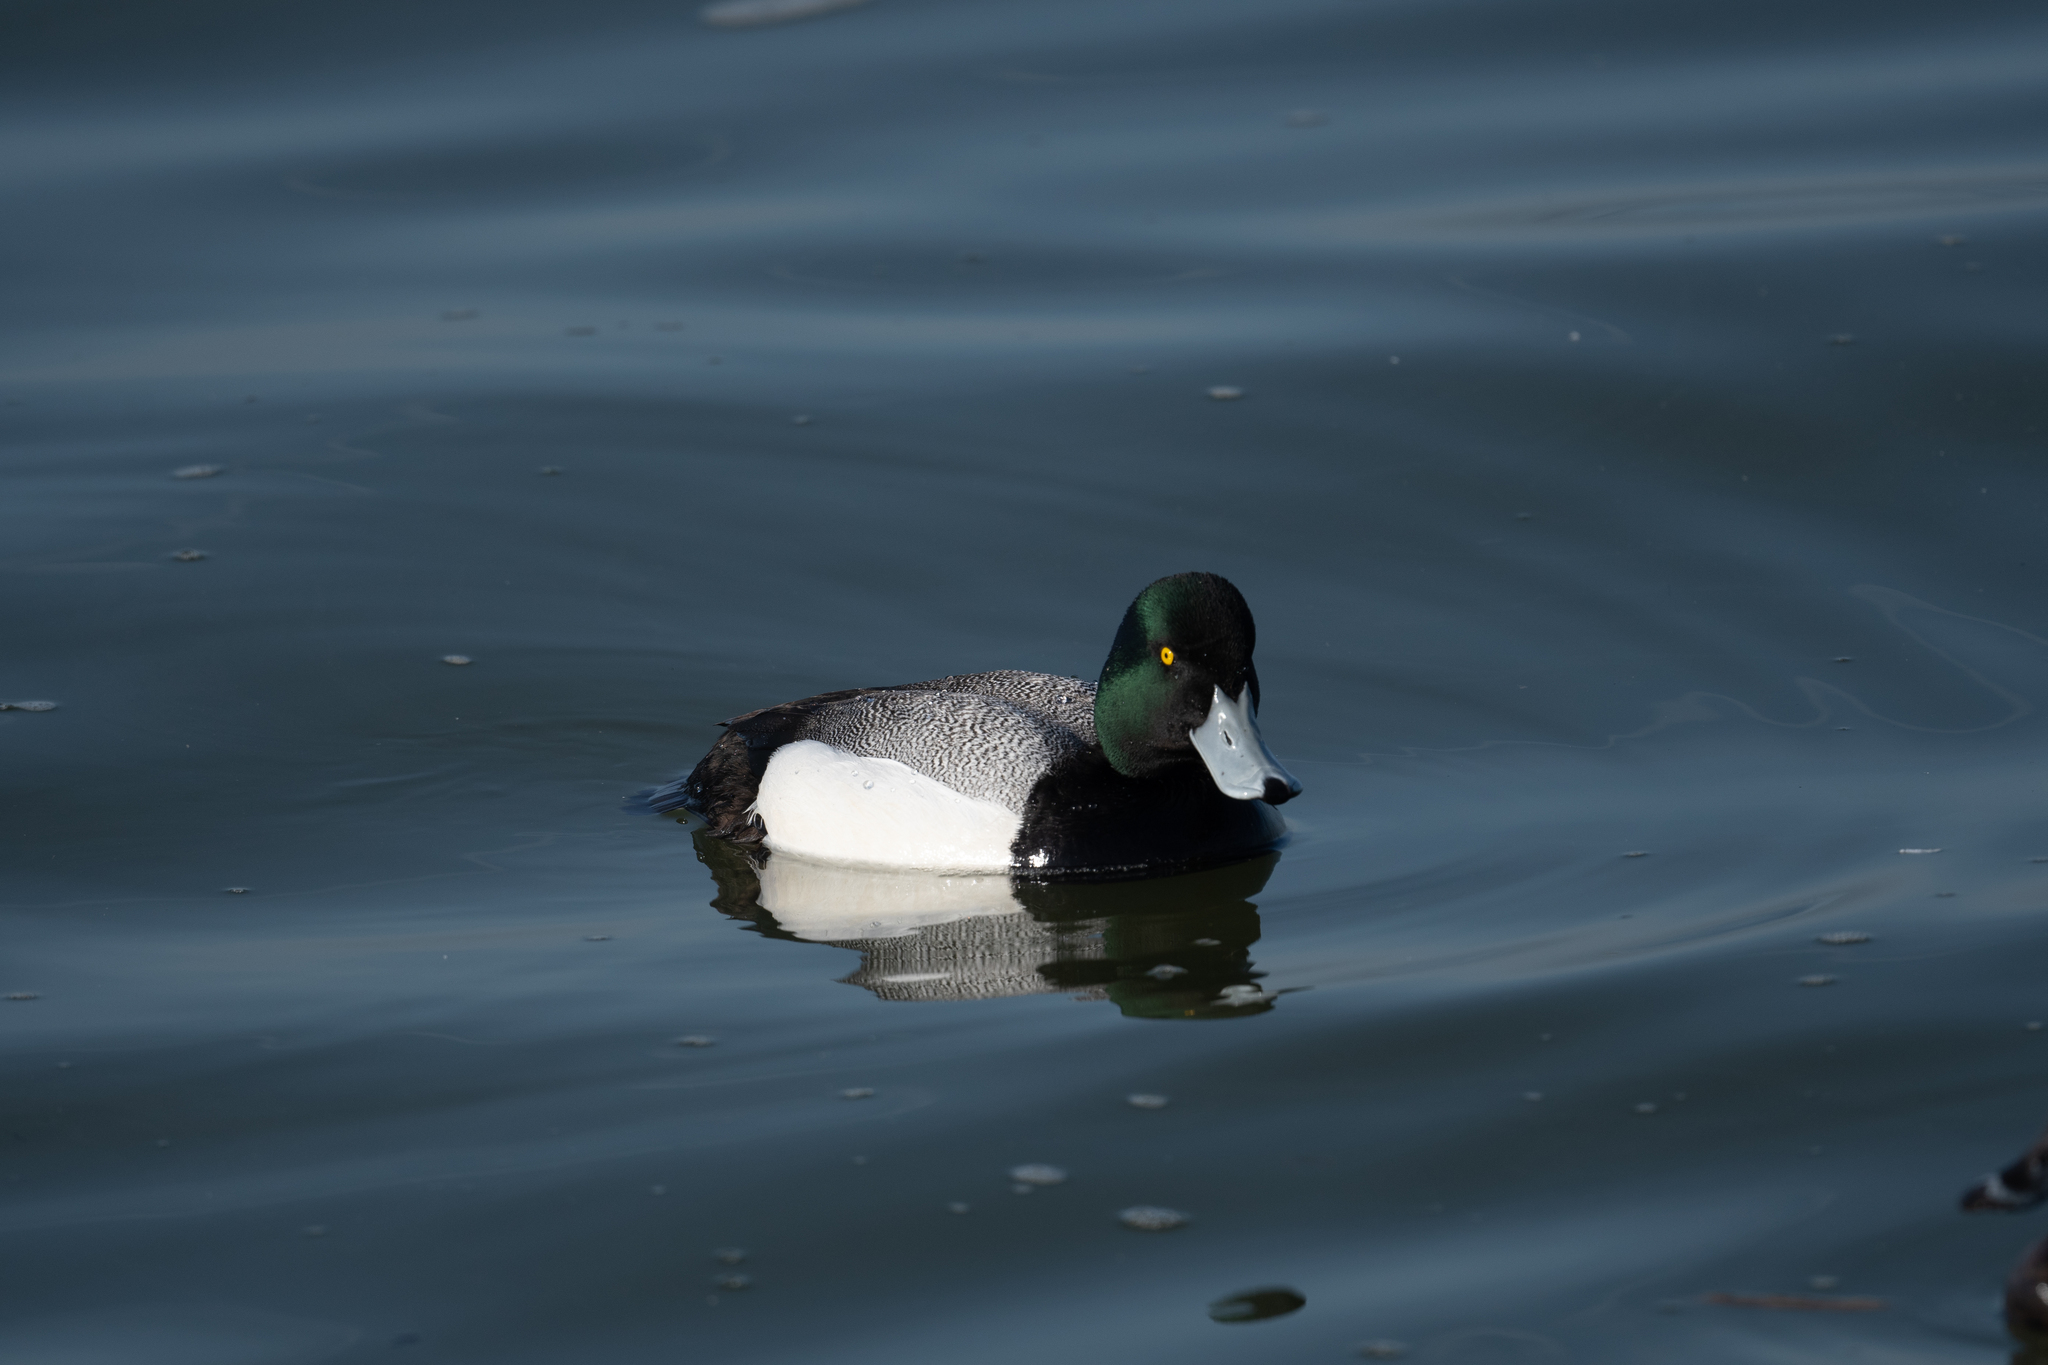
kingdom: Animalia
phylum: Chordata
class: Aves
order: Anseriformes
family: Anatidae
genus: Aythya
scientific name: Aythya marila
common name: Greater scaup
